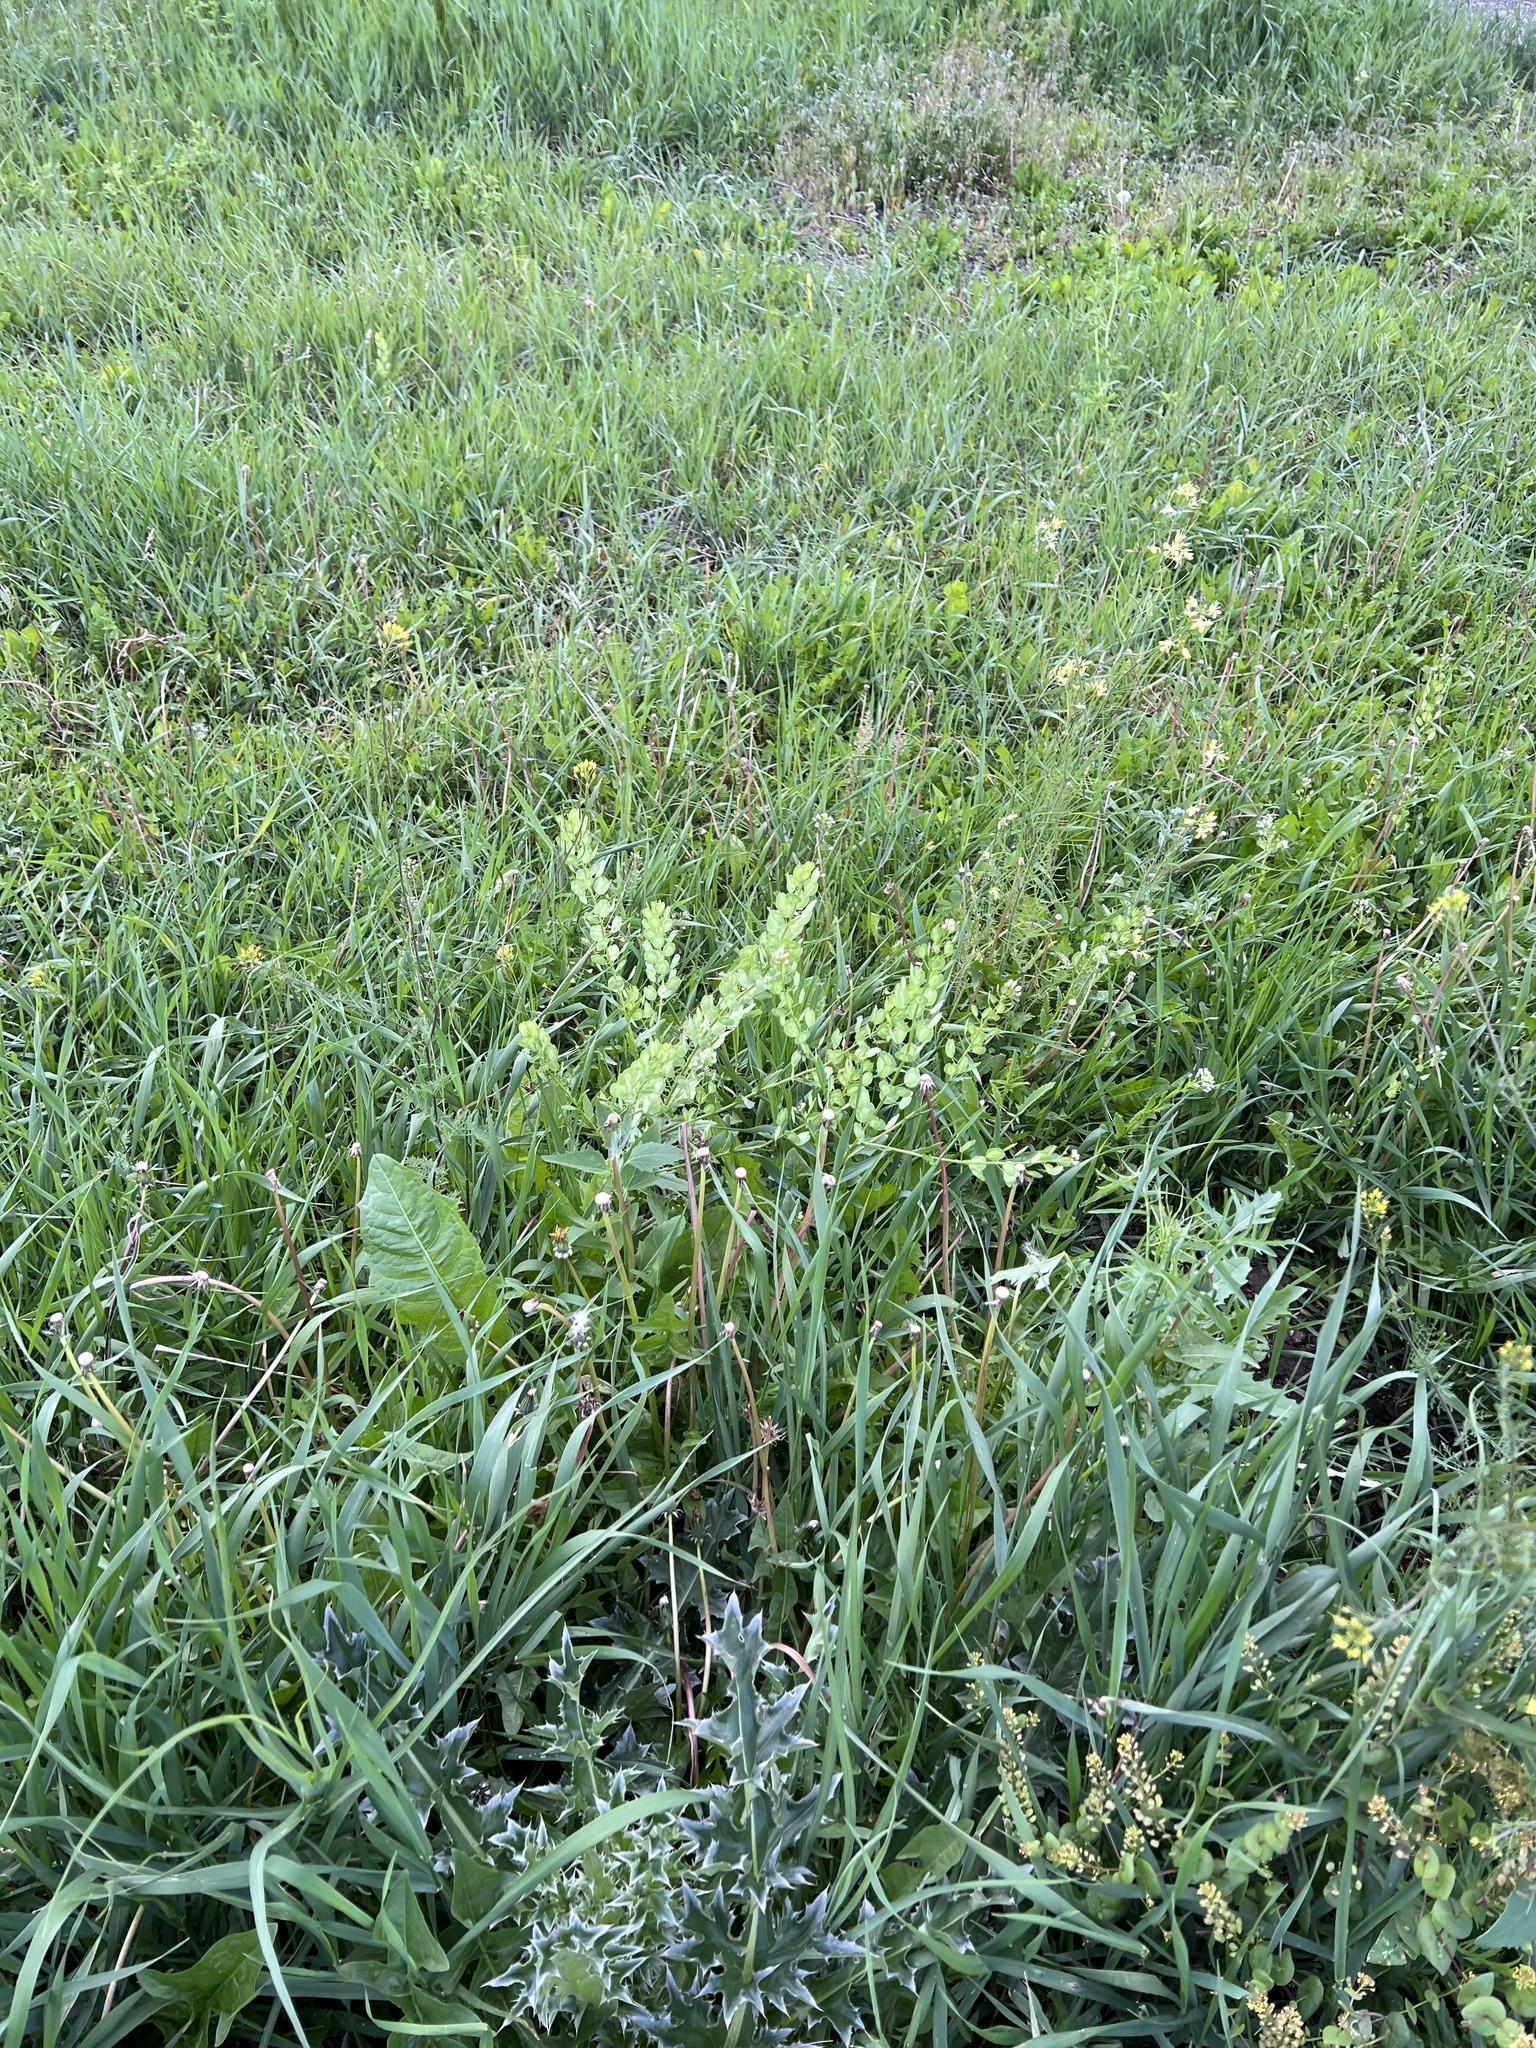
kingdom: Plantae
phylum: Tracheophyta
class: Magnoliopsida
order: Brassicales
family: Brassicaceae
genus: Thlaspi
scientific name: Thlaspi arvense
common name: Field pennycress
